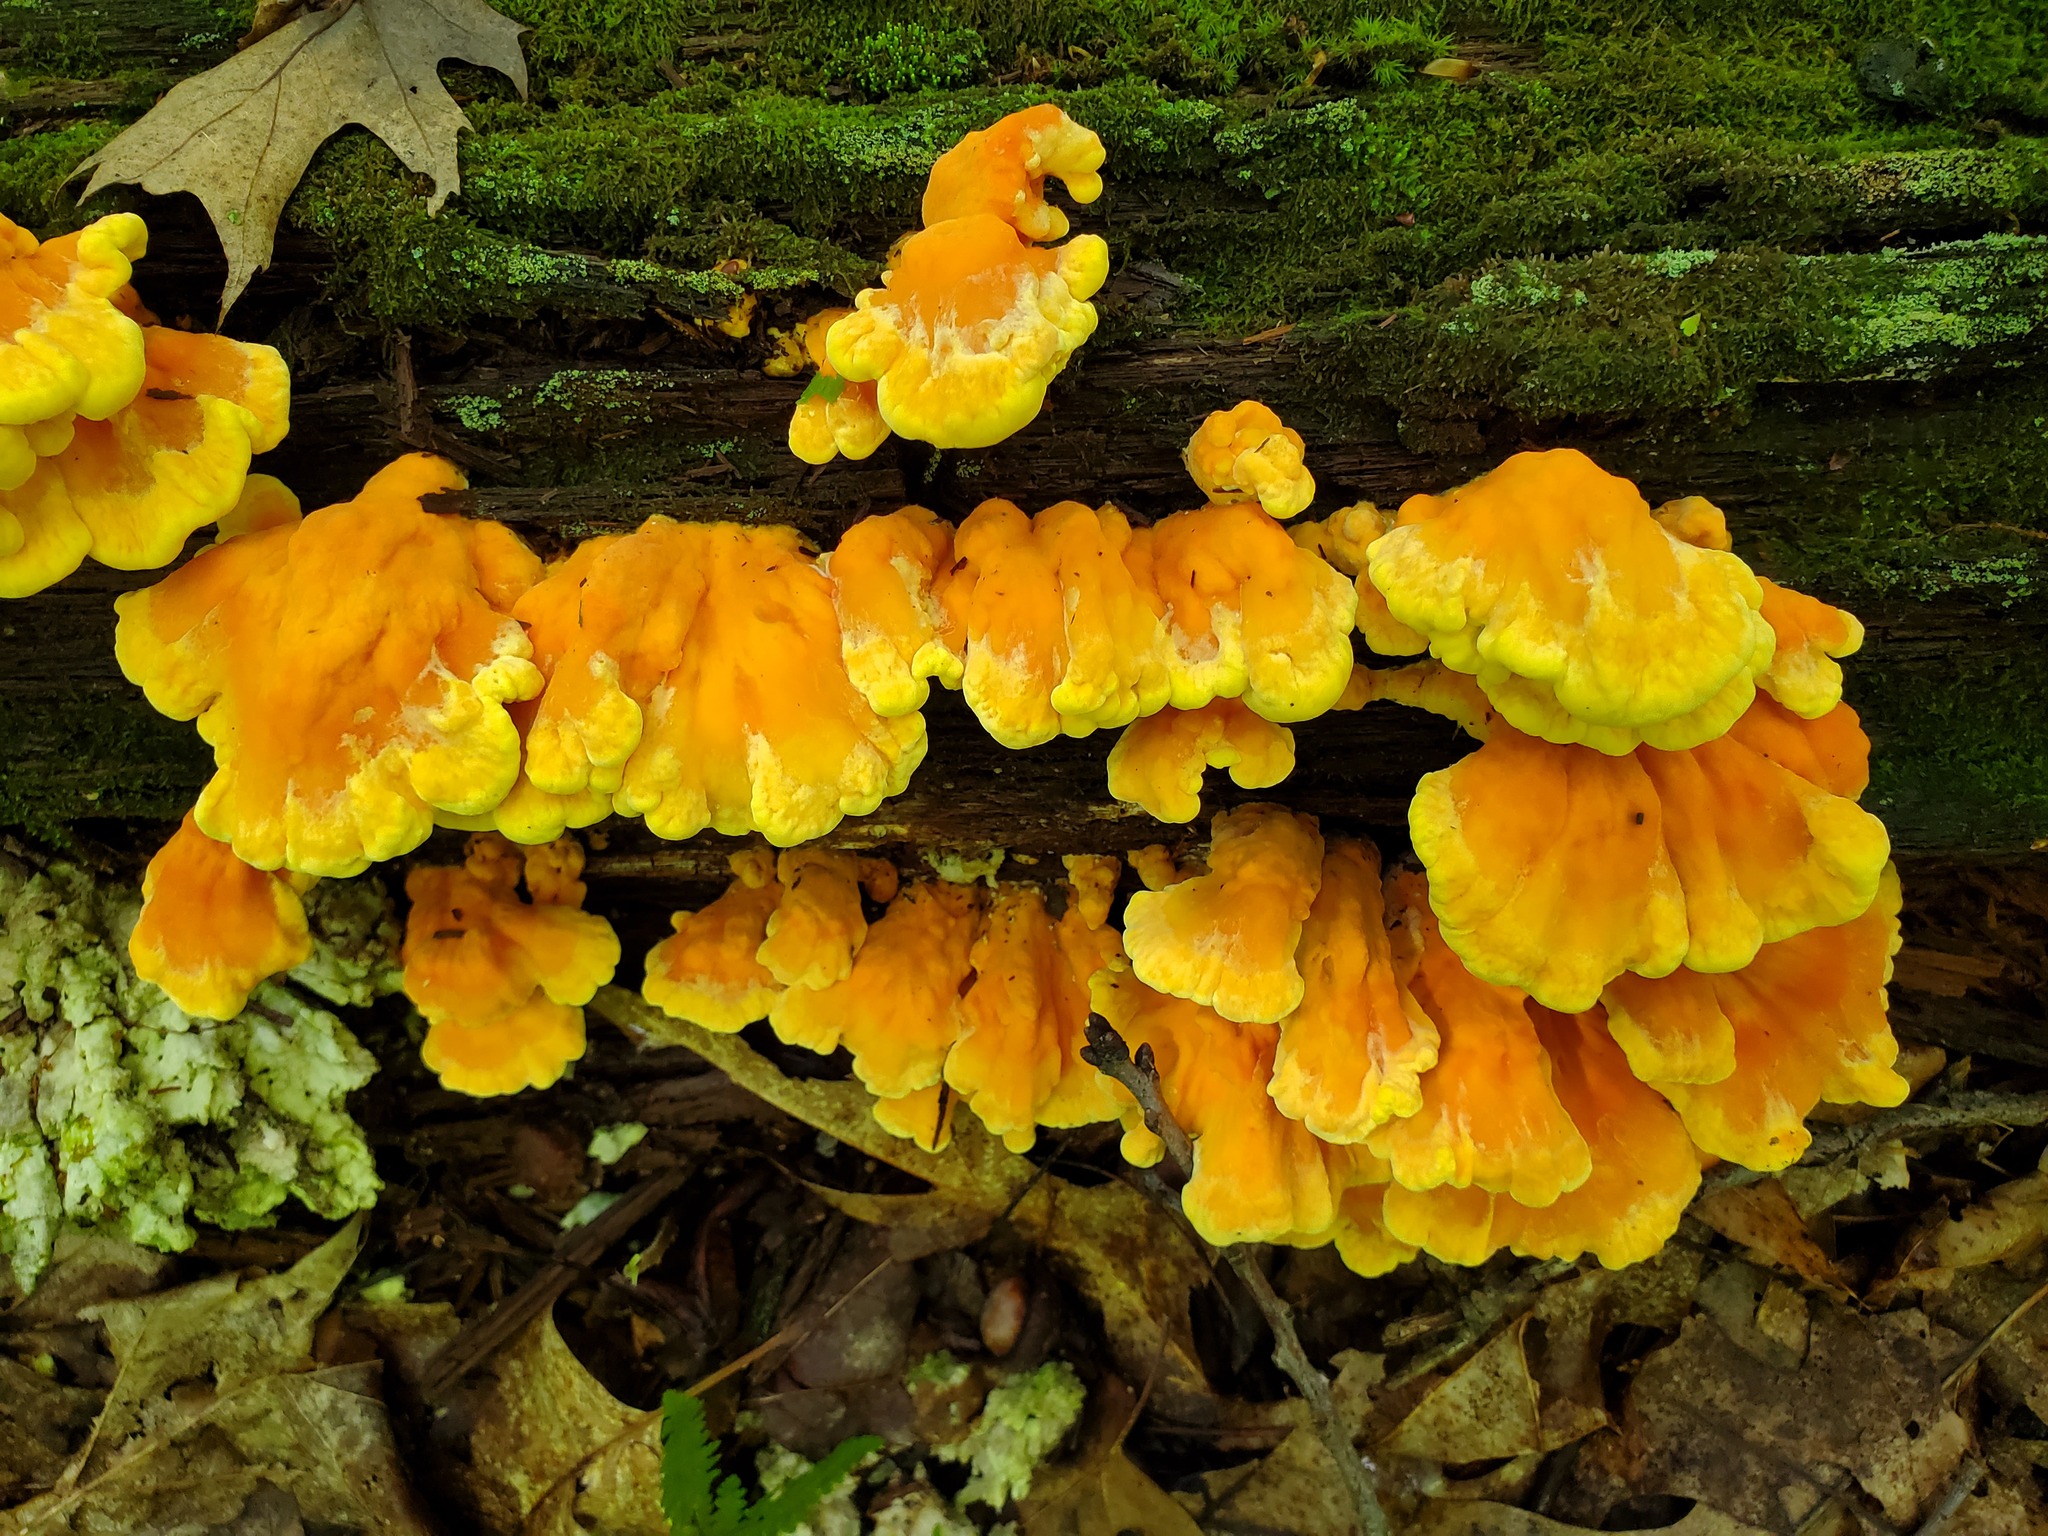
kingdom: Fungi
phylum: Basidiomycota
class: Agaricomycetes
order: Polyporales
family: Laetiporaceae
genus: Laetiporus
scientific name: Laetiporus sulphureus
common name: Chicken of the woods
